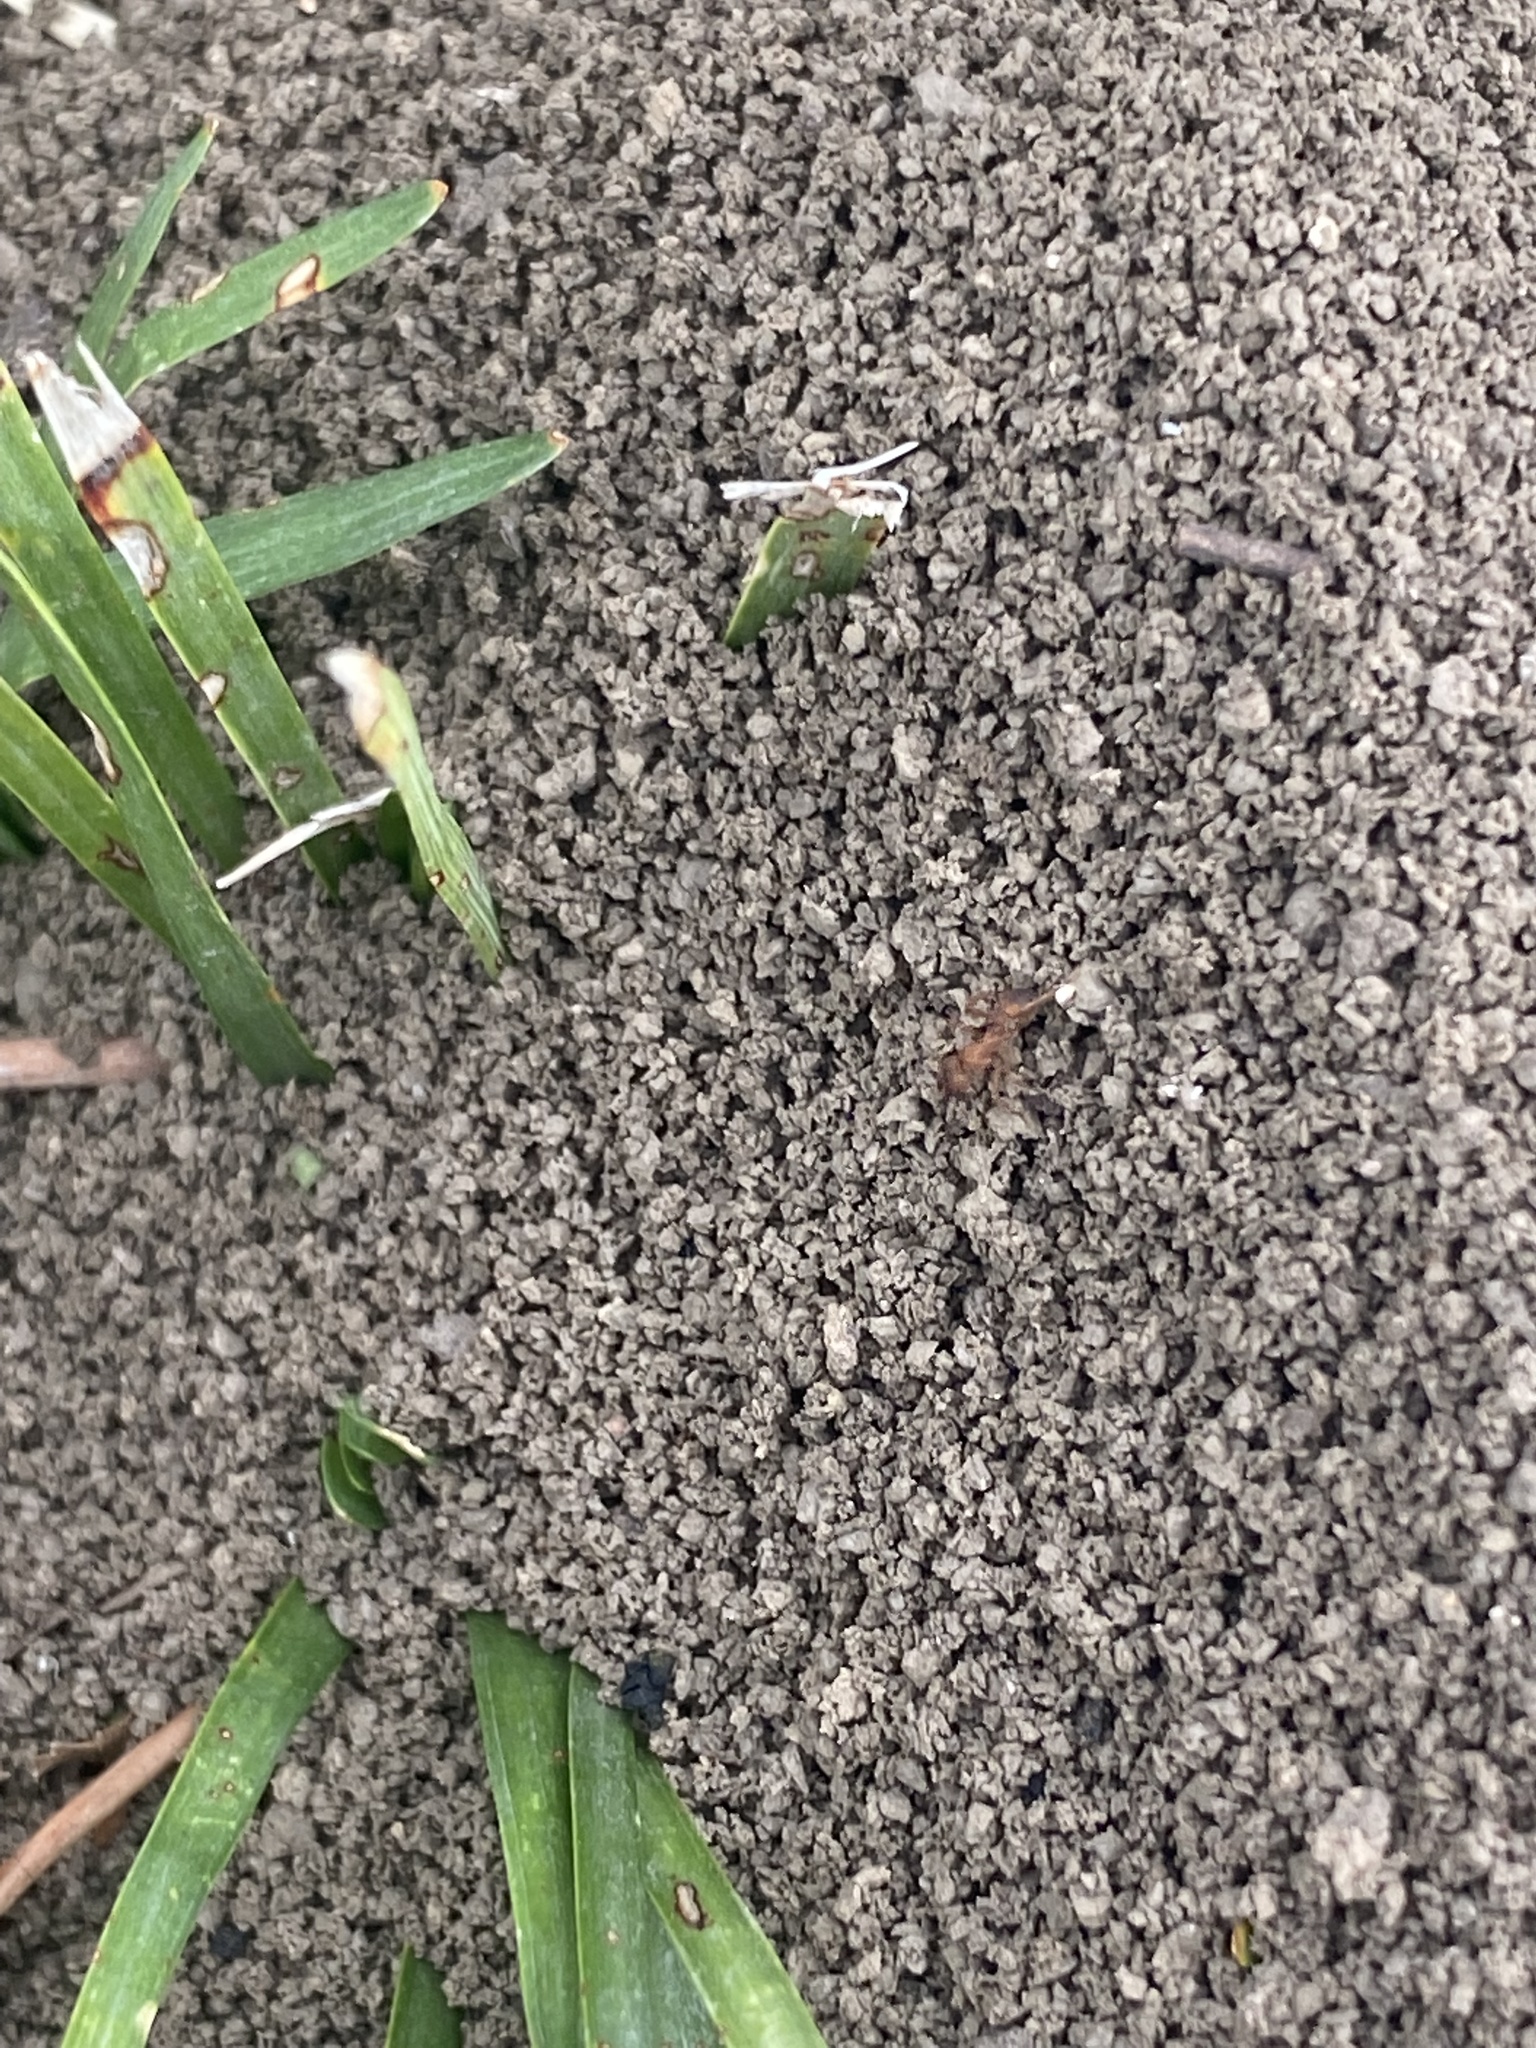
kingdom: Animalia
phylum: Arthropoda
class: Insecta
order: Hymenoptera
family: Formicidae
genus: Trachymyrmex
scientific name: Trachymyrmex septentrionalis
